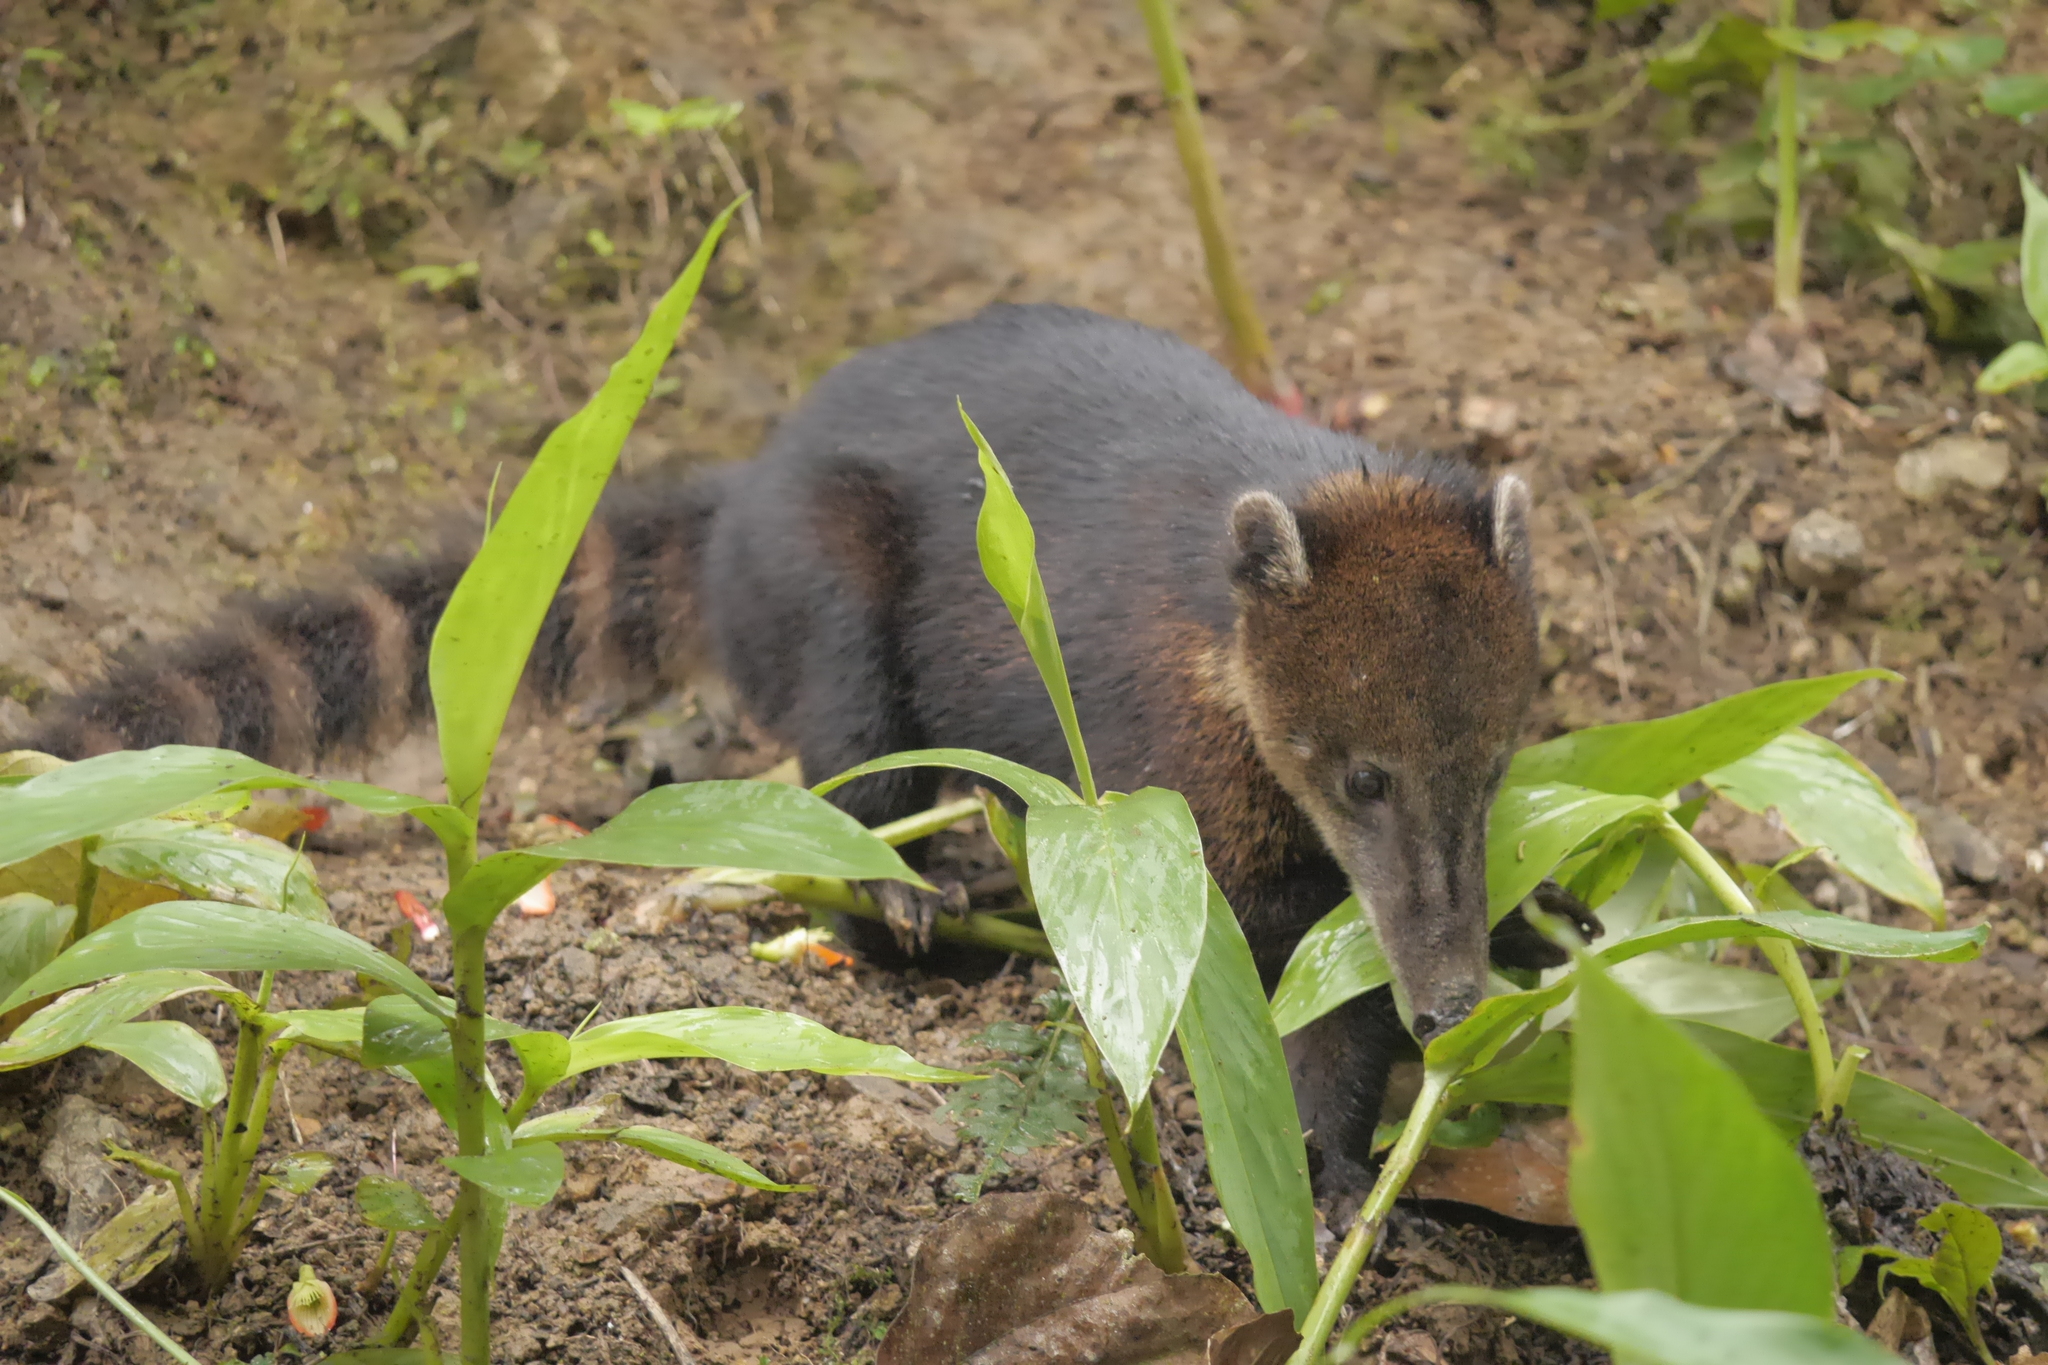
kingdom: Animalia
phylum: Chordata
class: Mammalia
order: Carnivora
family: Procyonidae
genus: Nasua
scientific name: Nasua nasua
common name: South american coati
